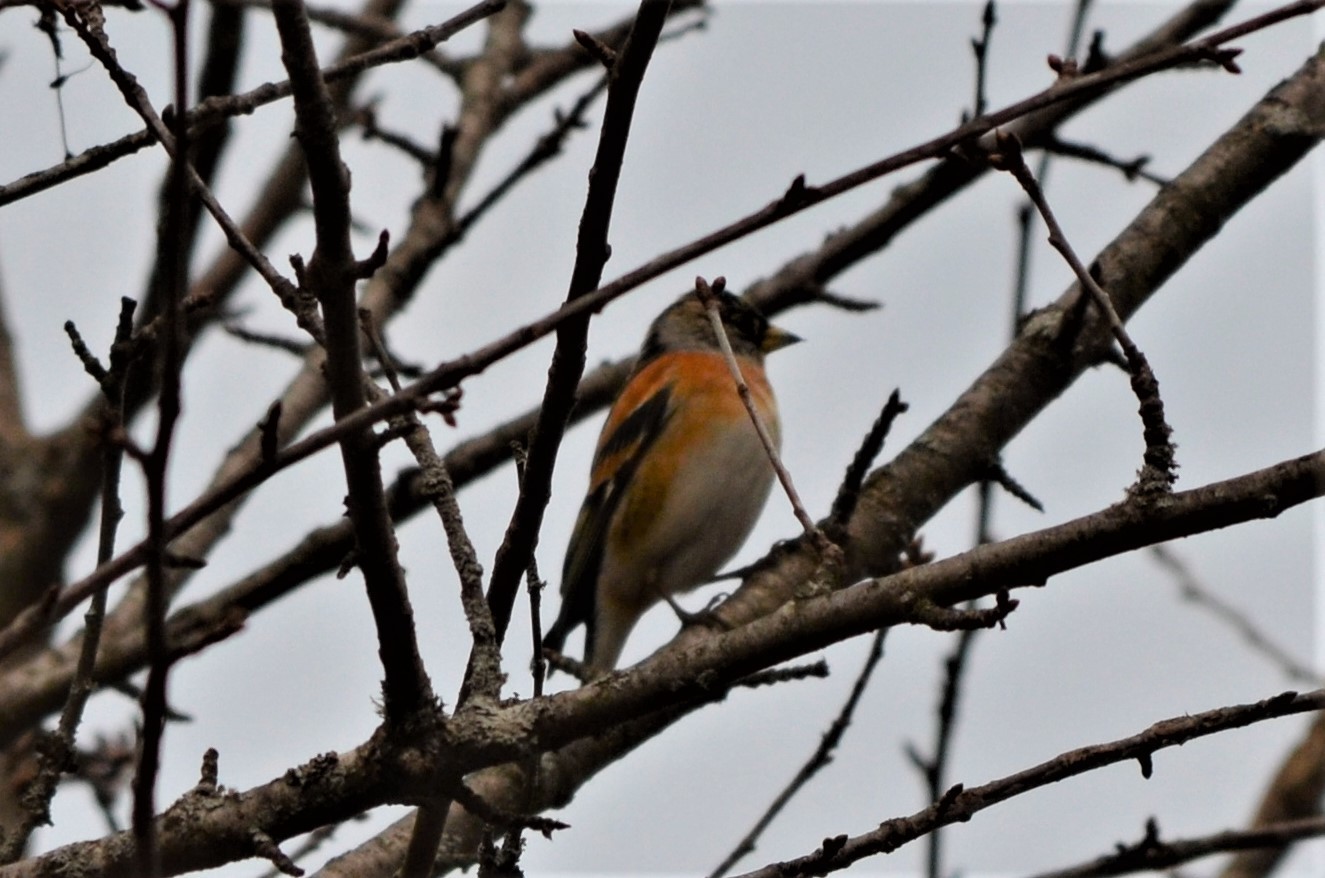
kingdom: Animalia
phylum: Chordata
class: Aves
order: Passeriformes
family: Fringillidae
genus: Fringilla
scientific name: Fringilla montifringilla
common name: Brambling
